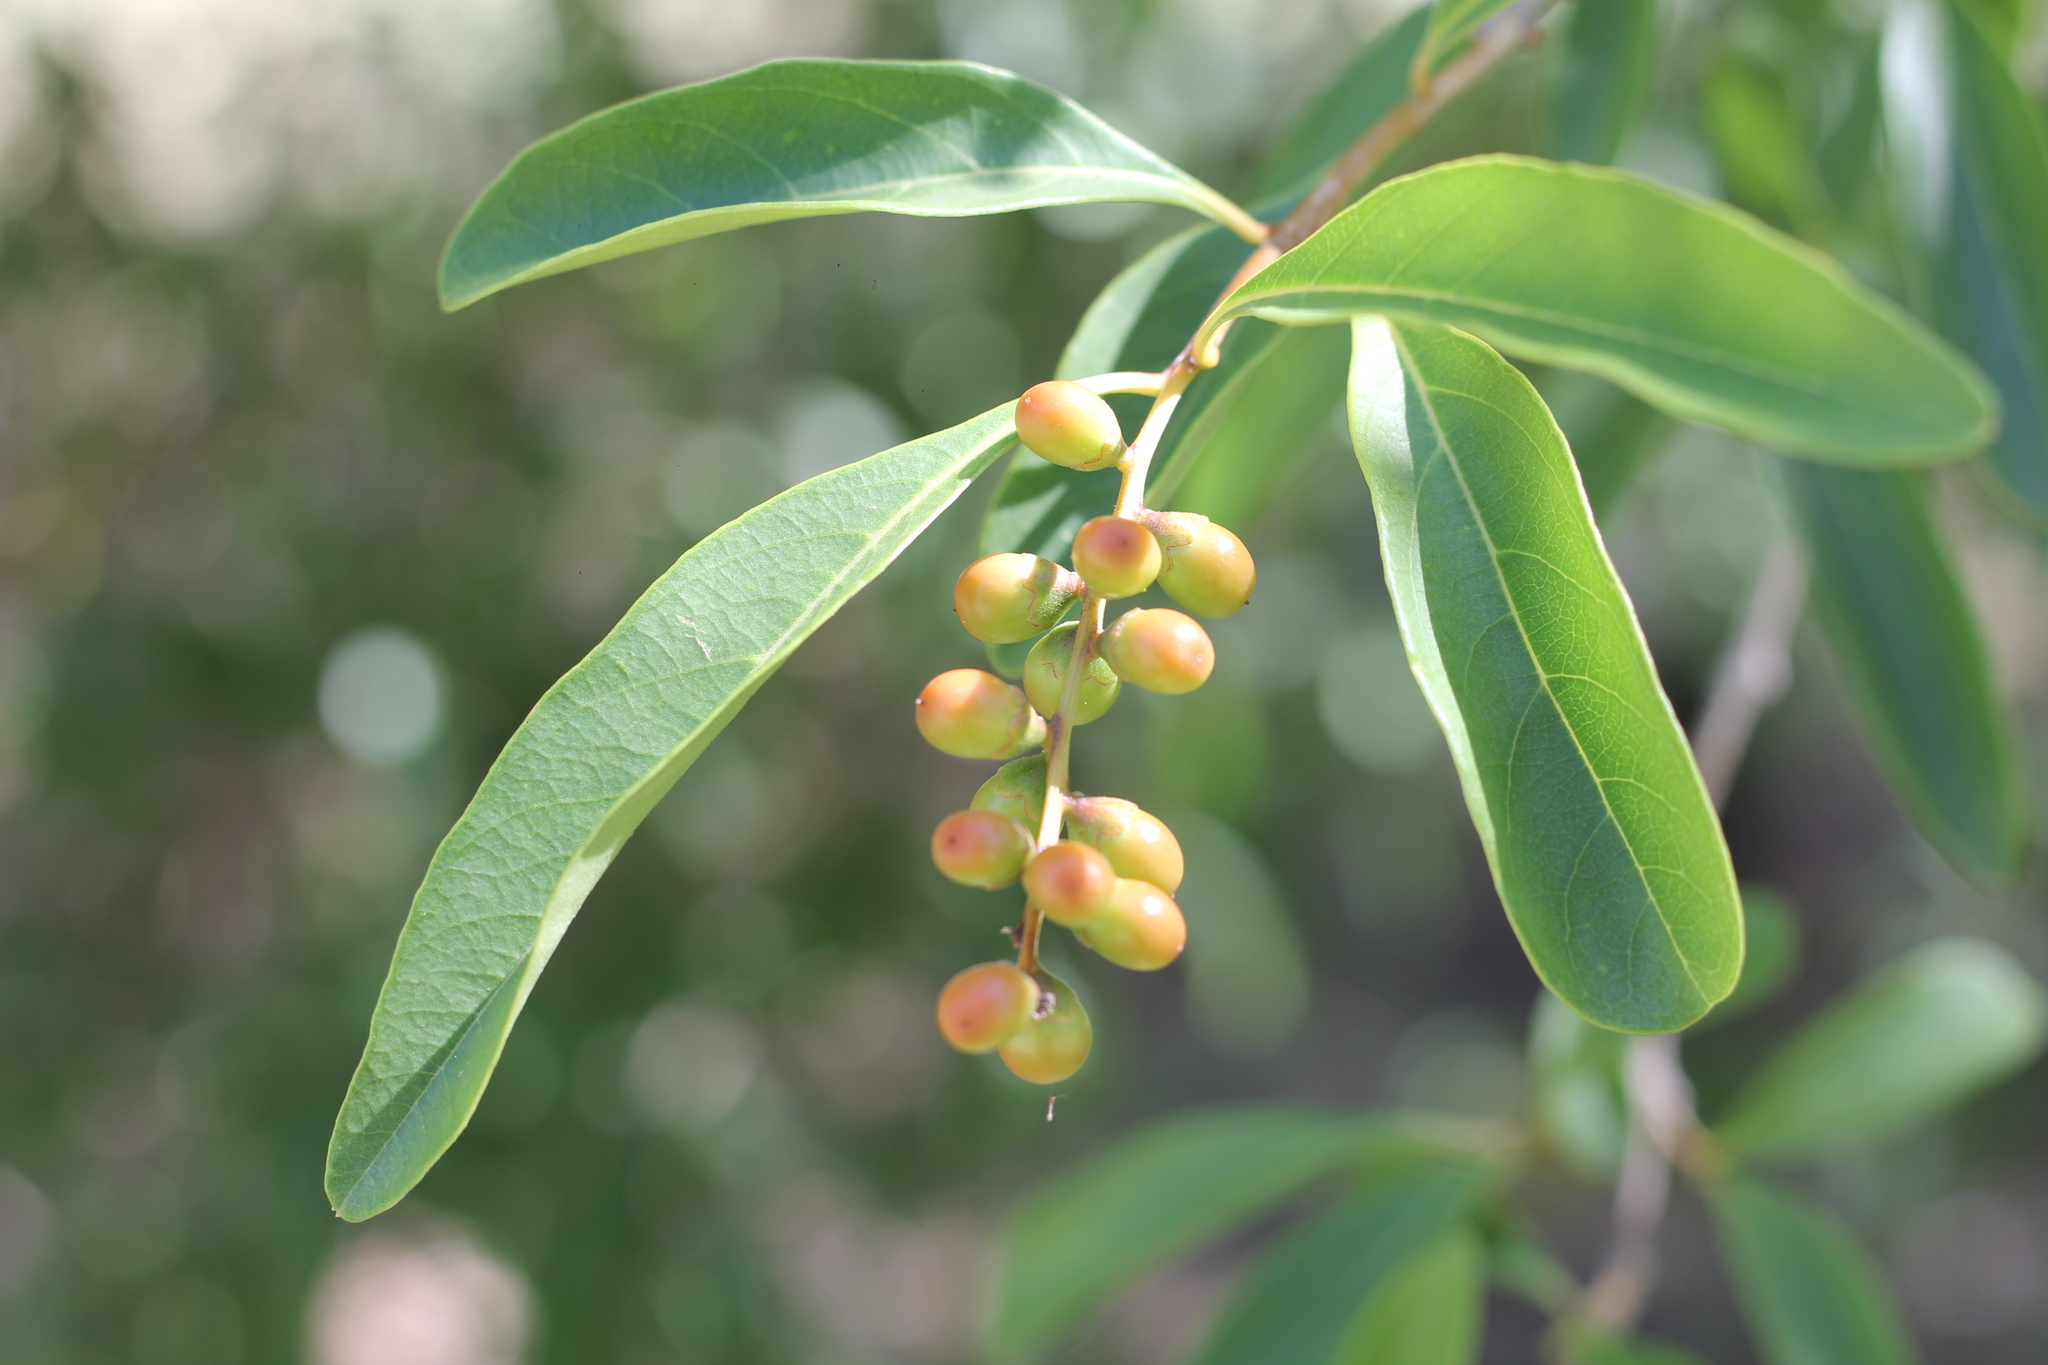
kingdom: Plantae
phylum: Tracheophyta
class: Magnoliopsida
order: Lamiales
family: Verbenaceae
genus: Citharexylum
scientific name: Citharexylum montevidense
